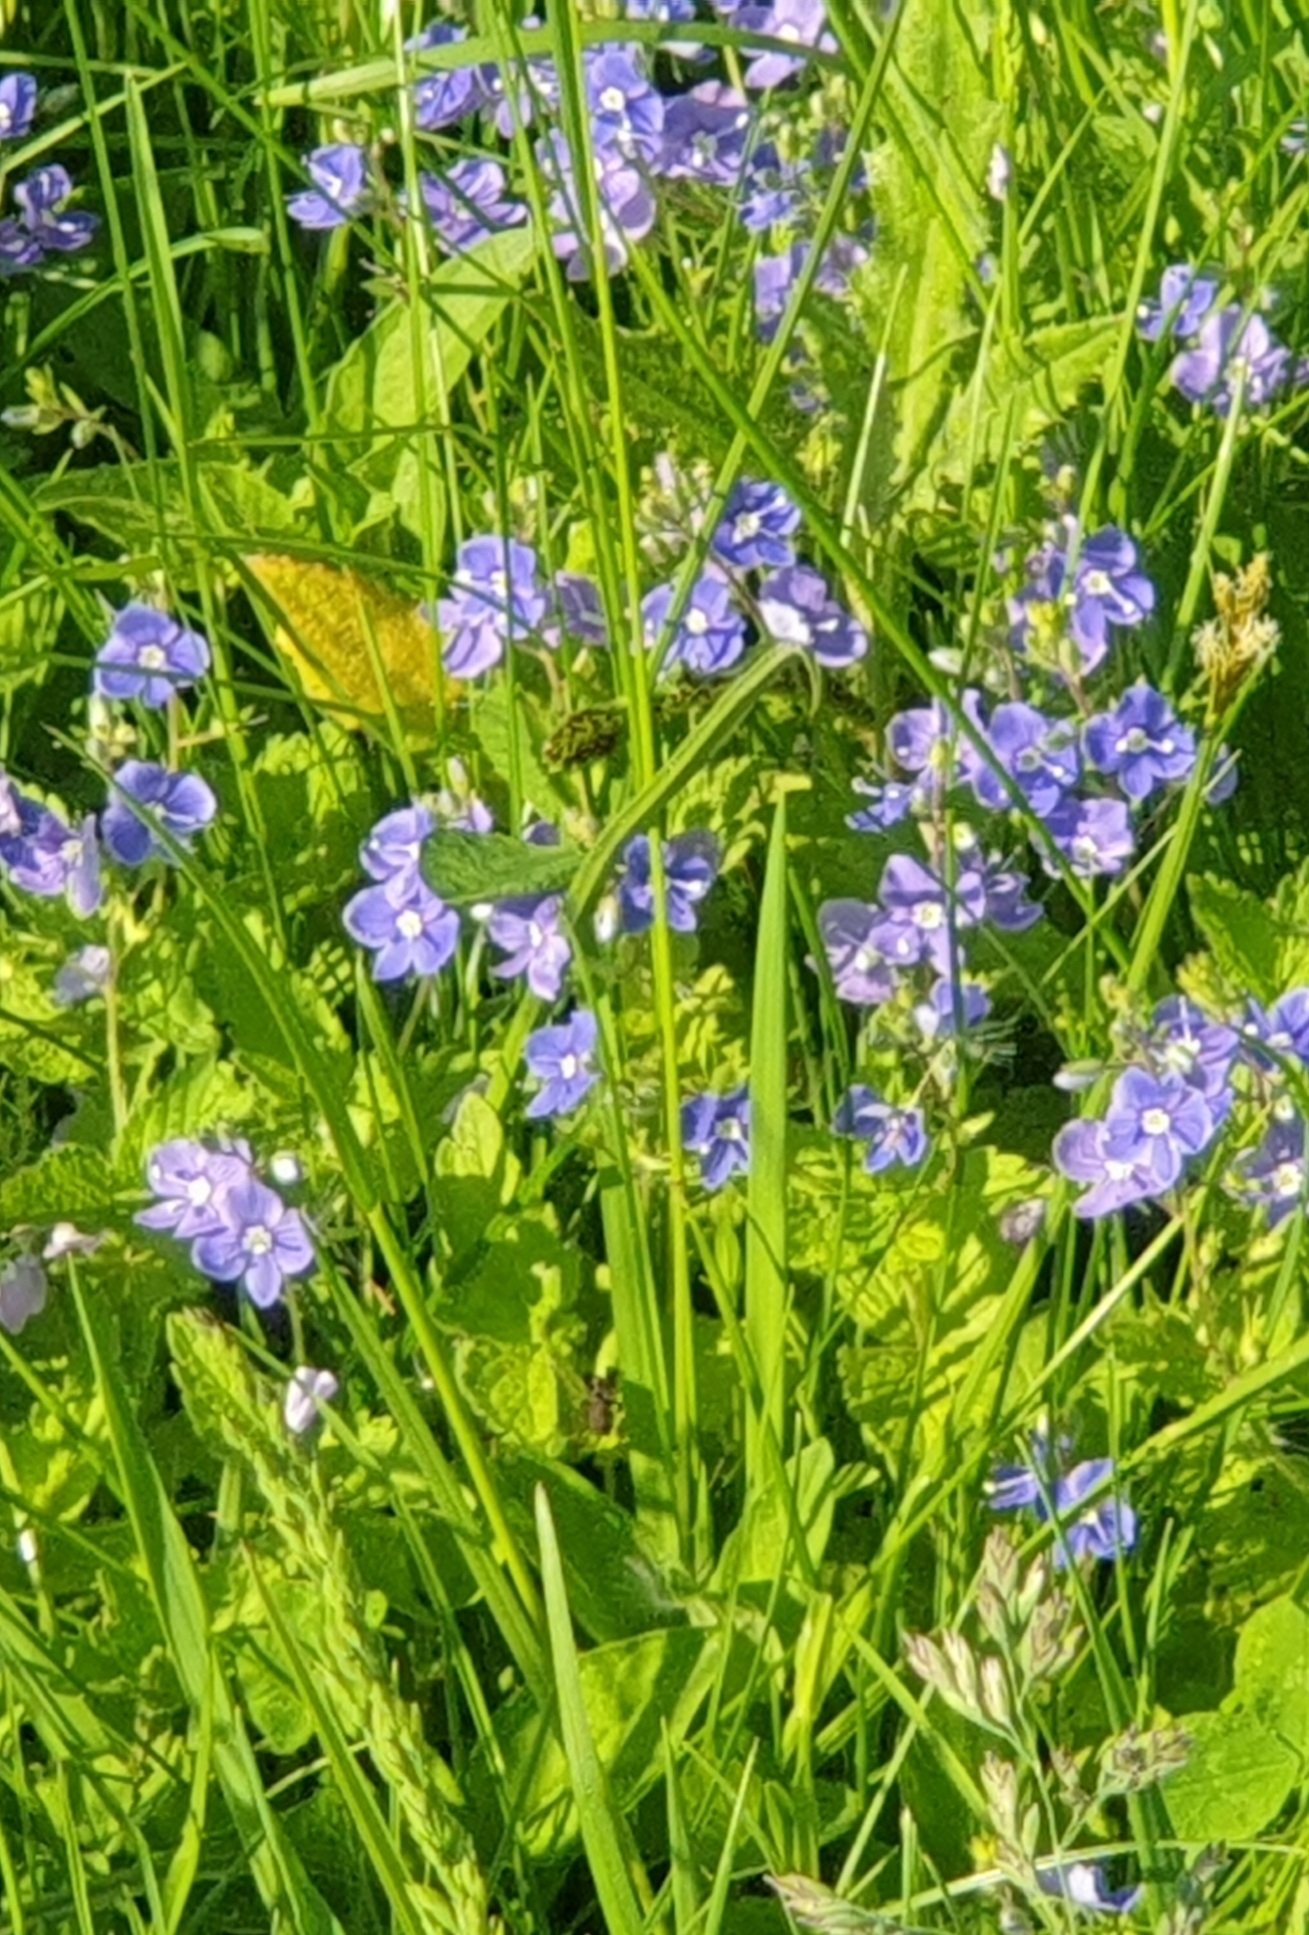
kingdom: Plantae
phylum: Tracheophyta
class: Magnoliopsida
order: Lamiales
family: Plantaginaceae
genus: Veronica
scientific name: Veronica chamaedrys
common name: Germander speedwell
